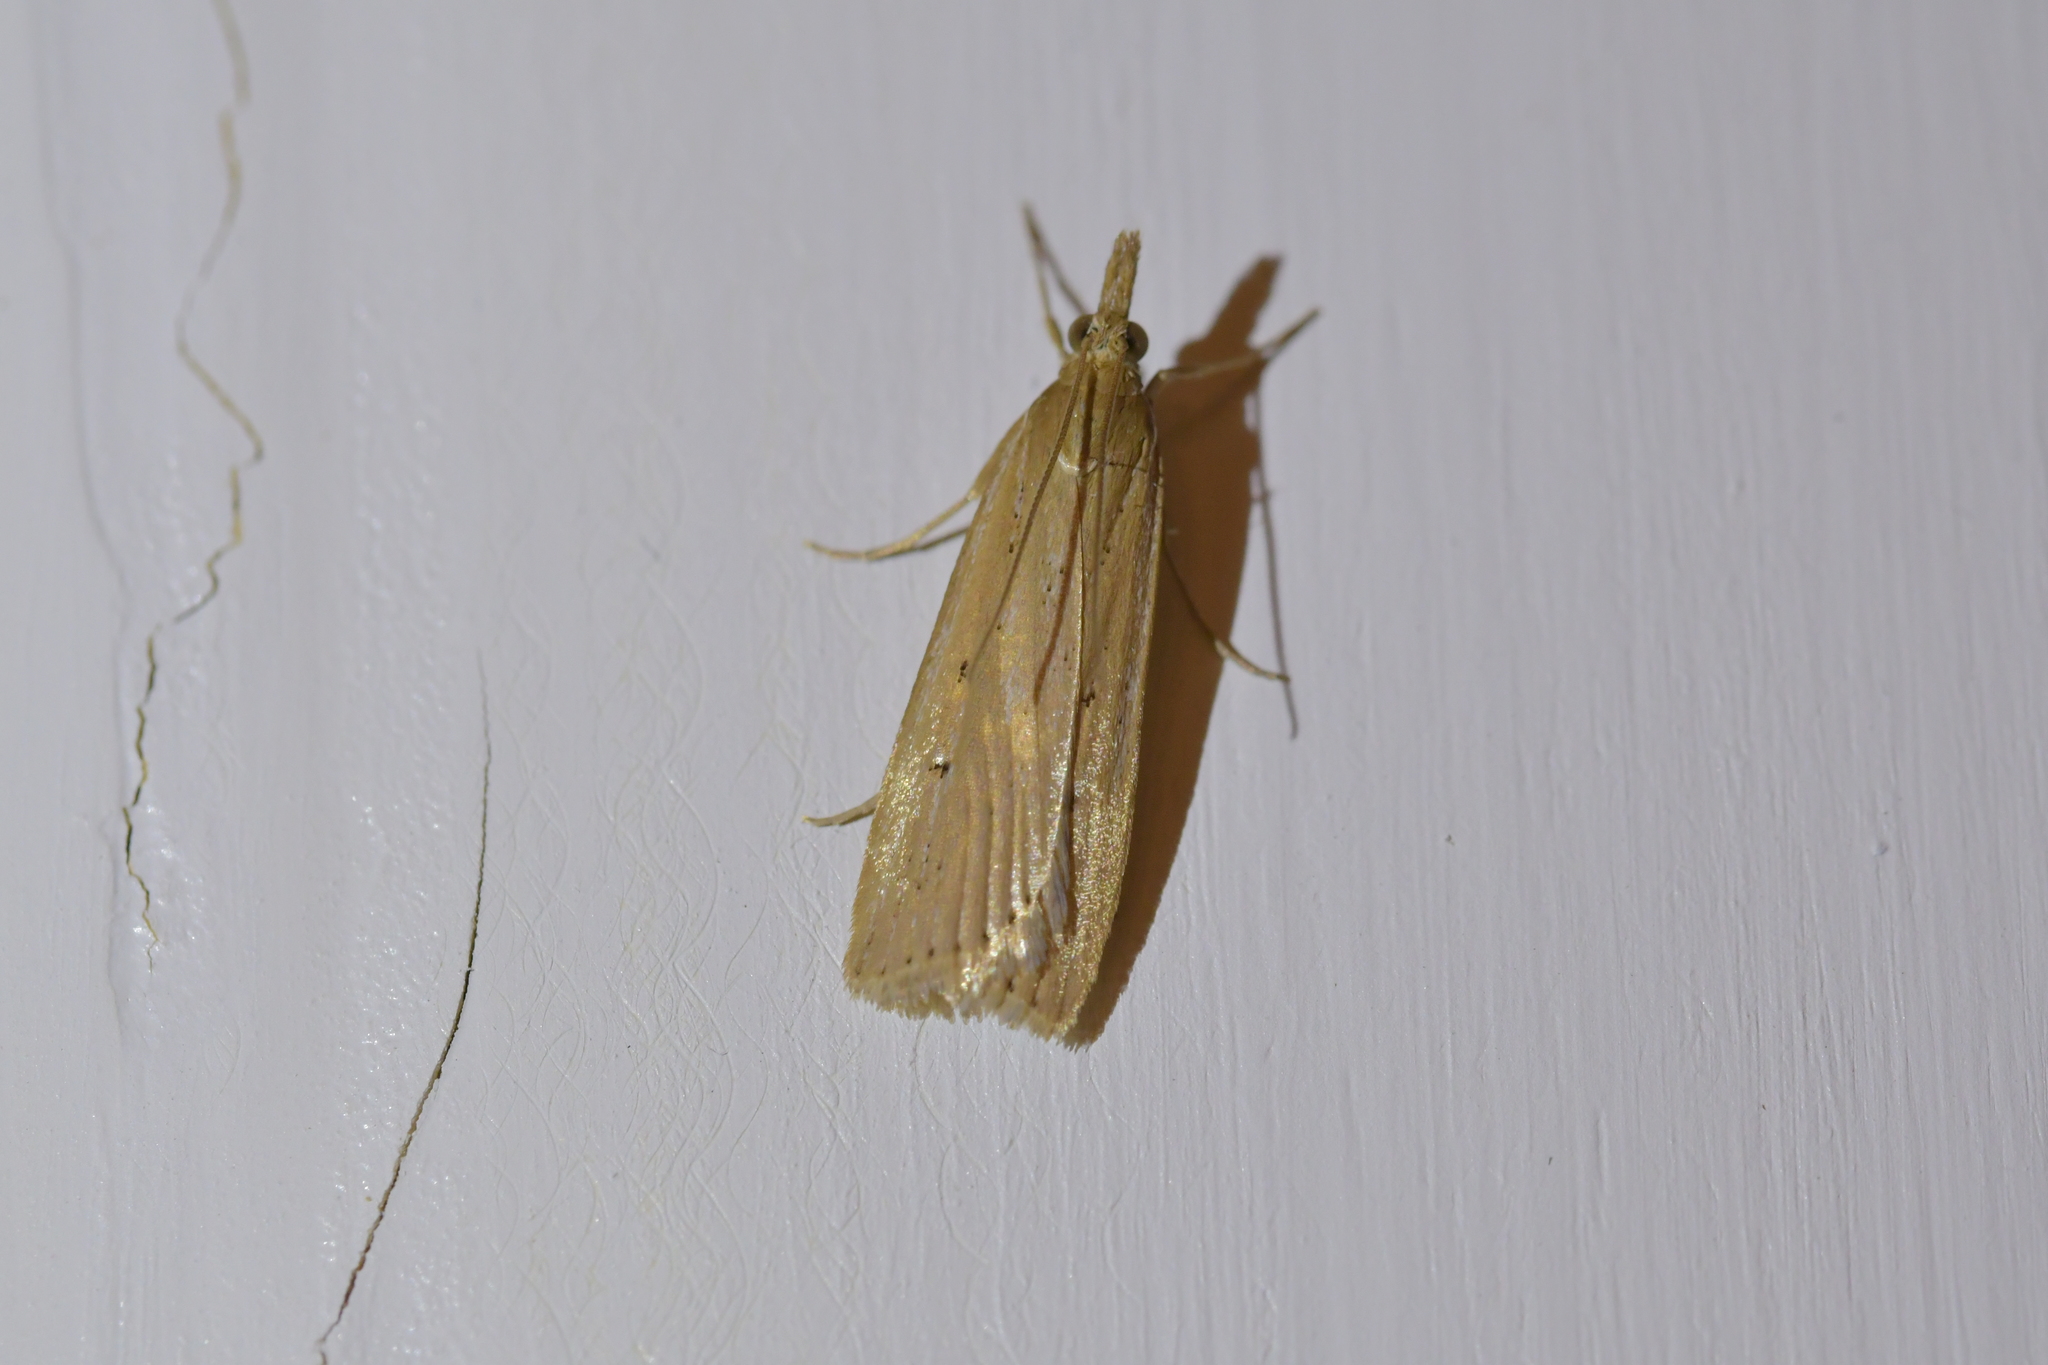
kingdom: Animalia
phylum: Arthropoda
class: Insecta
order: Lepidoptera
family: Crambidae
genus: Eudonia
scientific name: Eudonia sabulosella
